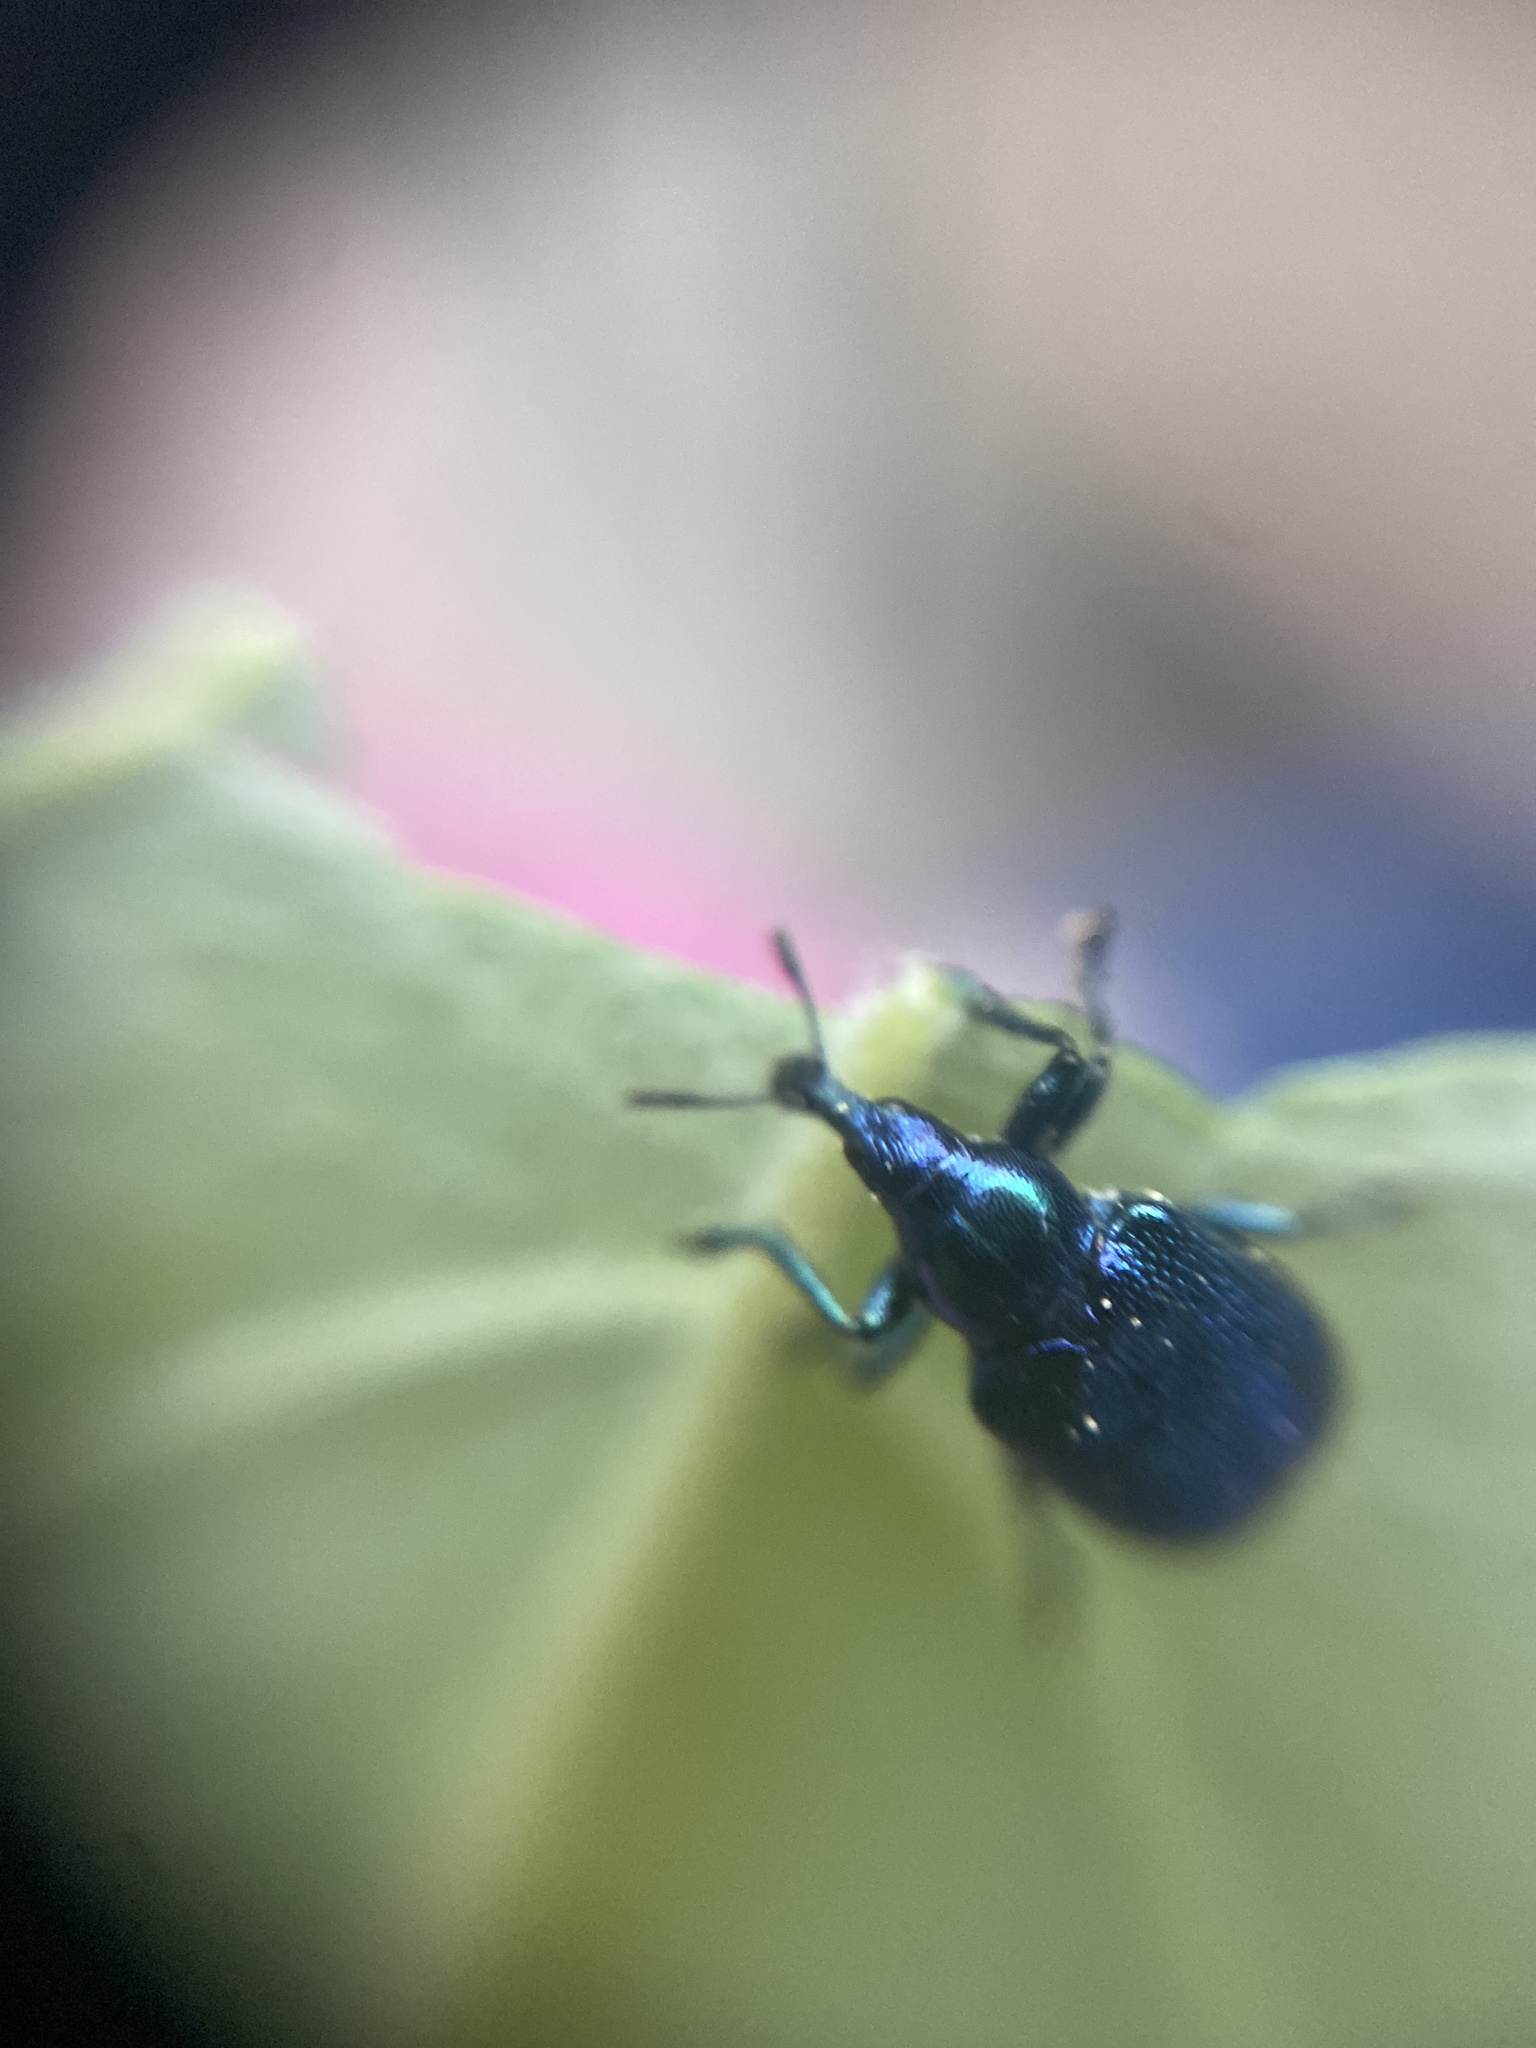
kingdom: Animalia
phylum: Arthropoda
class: Insecta
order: Coleoptera
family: Attelabidae
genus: Byctiscus
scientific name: Byctiscus betulae
